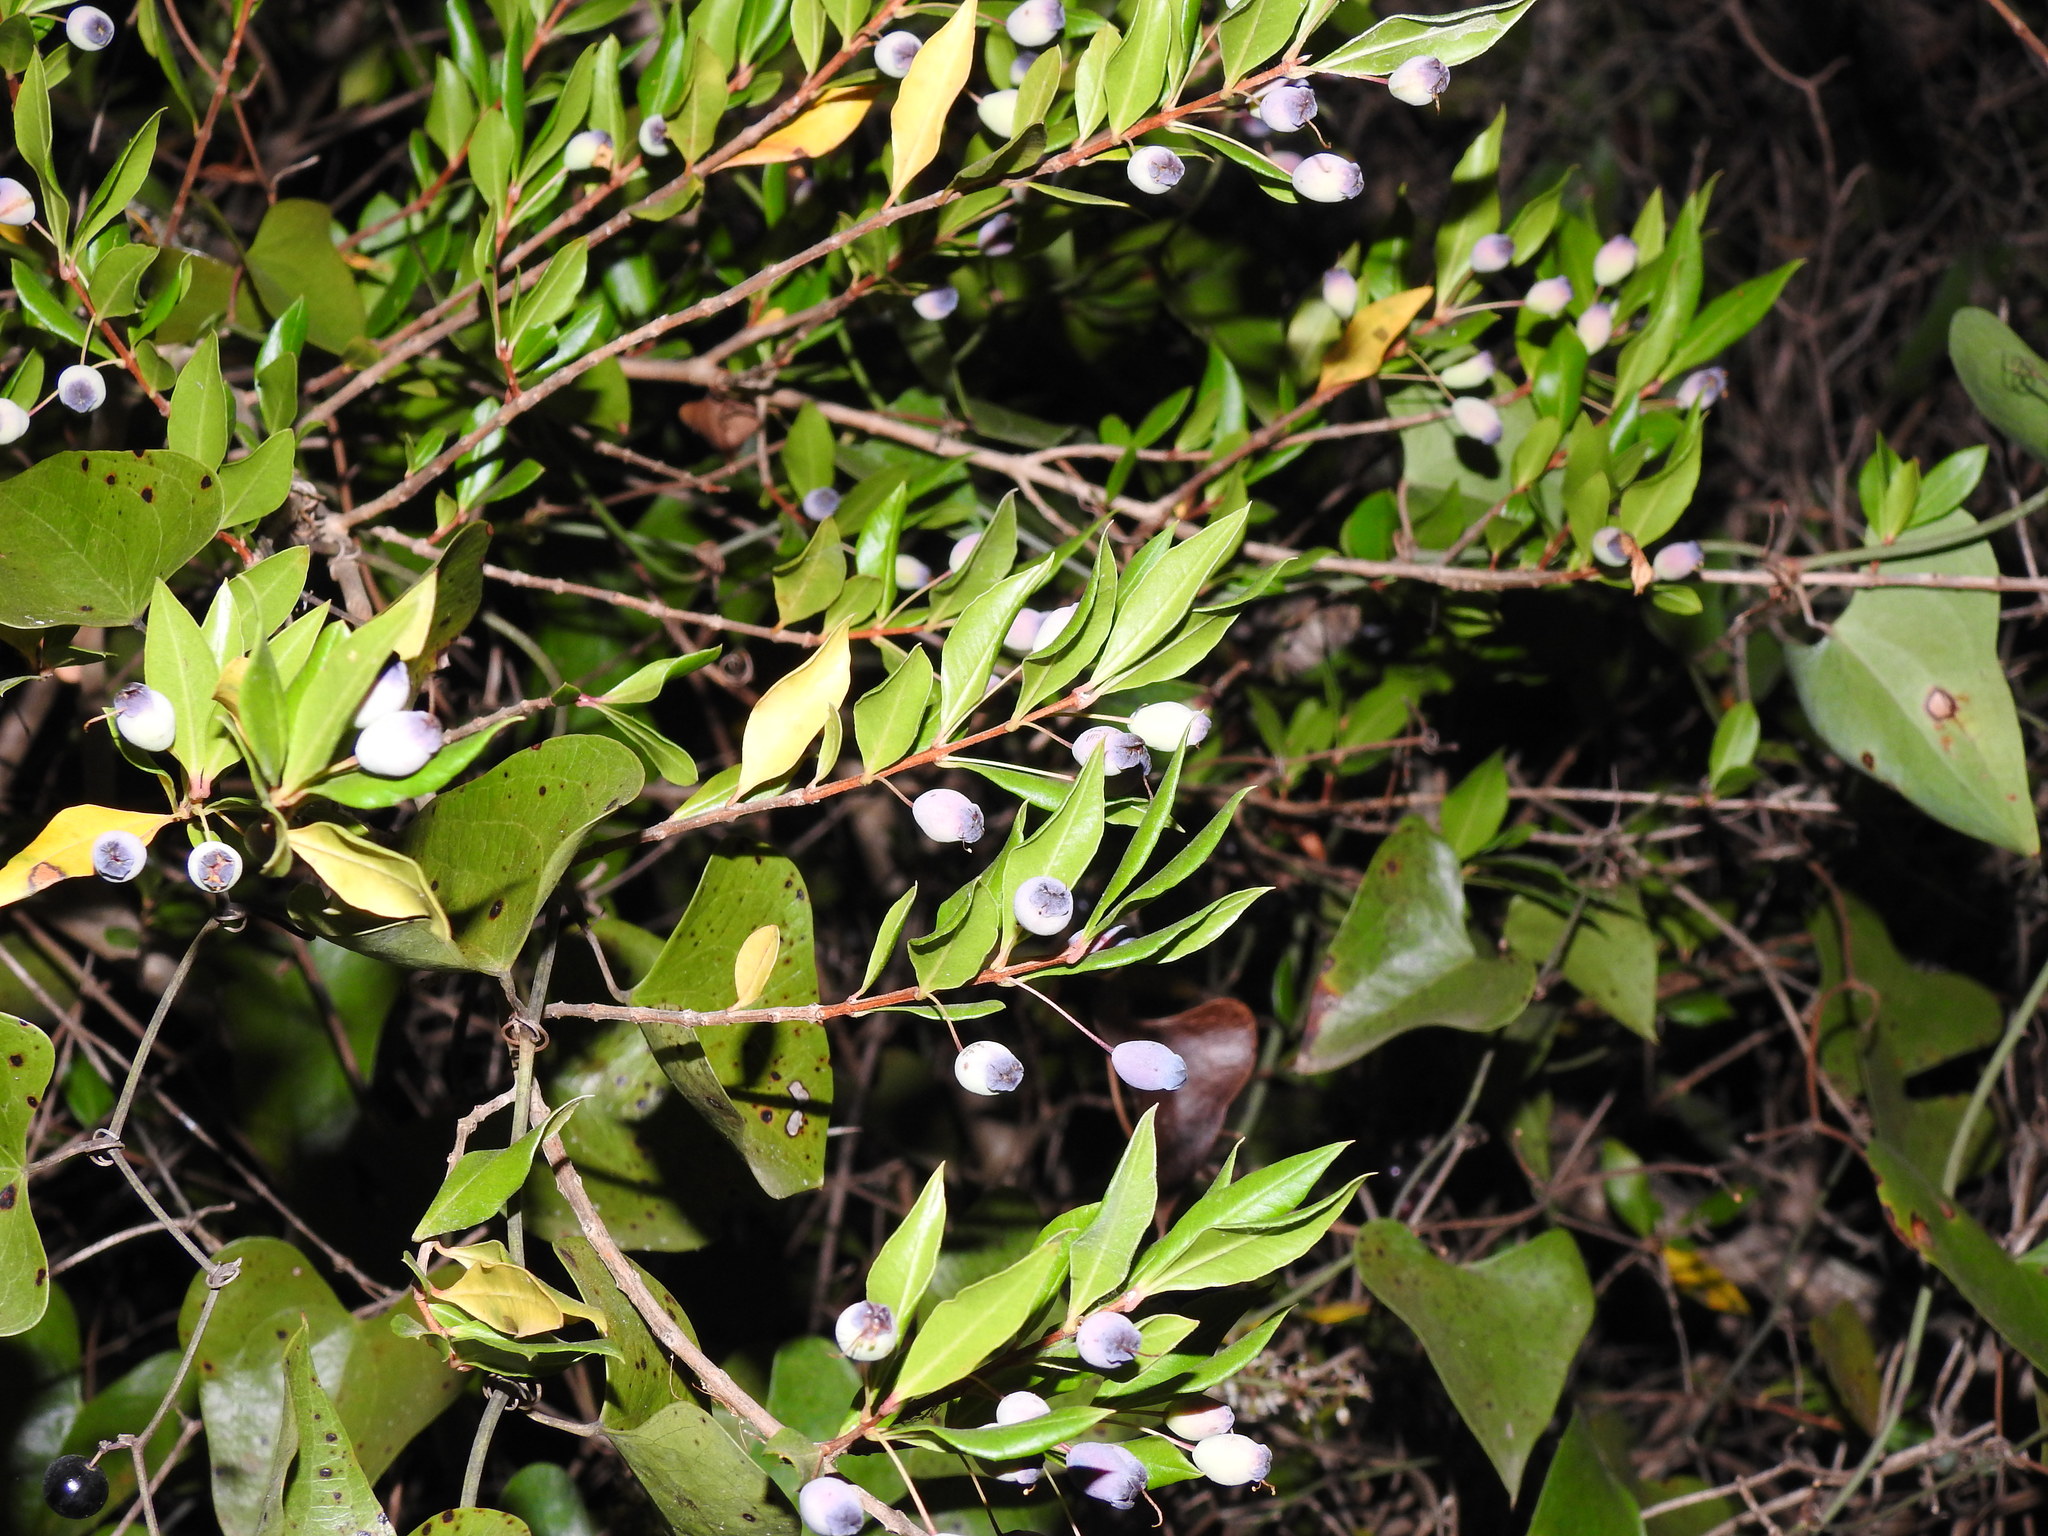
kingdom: Plantae
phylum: Tracheophyta
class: Magnoliopsida
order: Myrtales
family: Myrtaceae
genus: Myrtus
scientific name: Myrtus communis
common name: Myrtle
